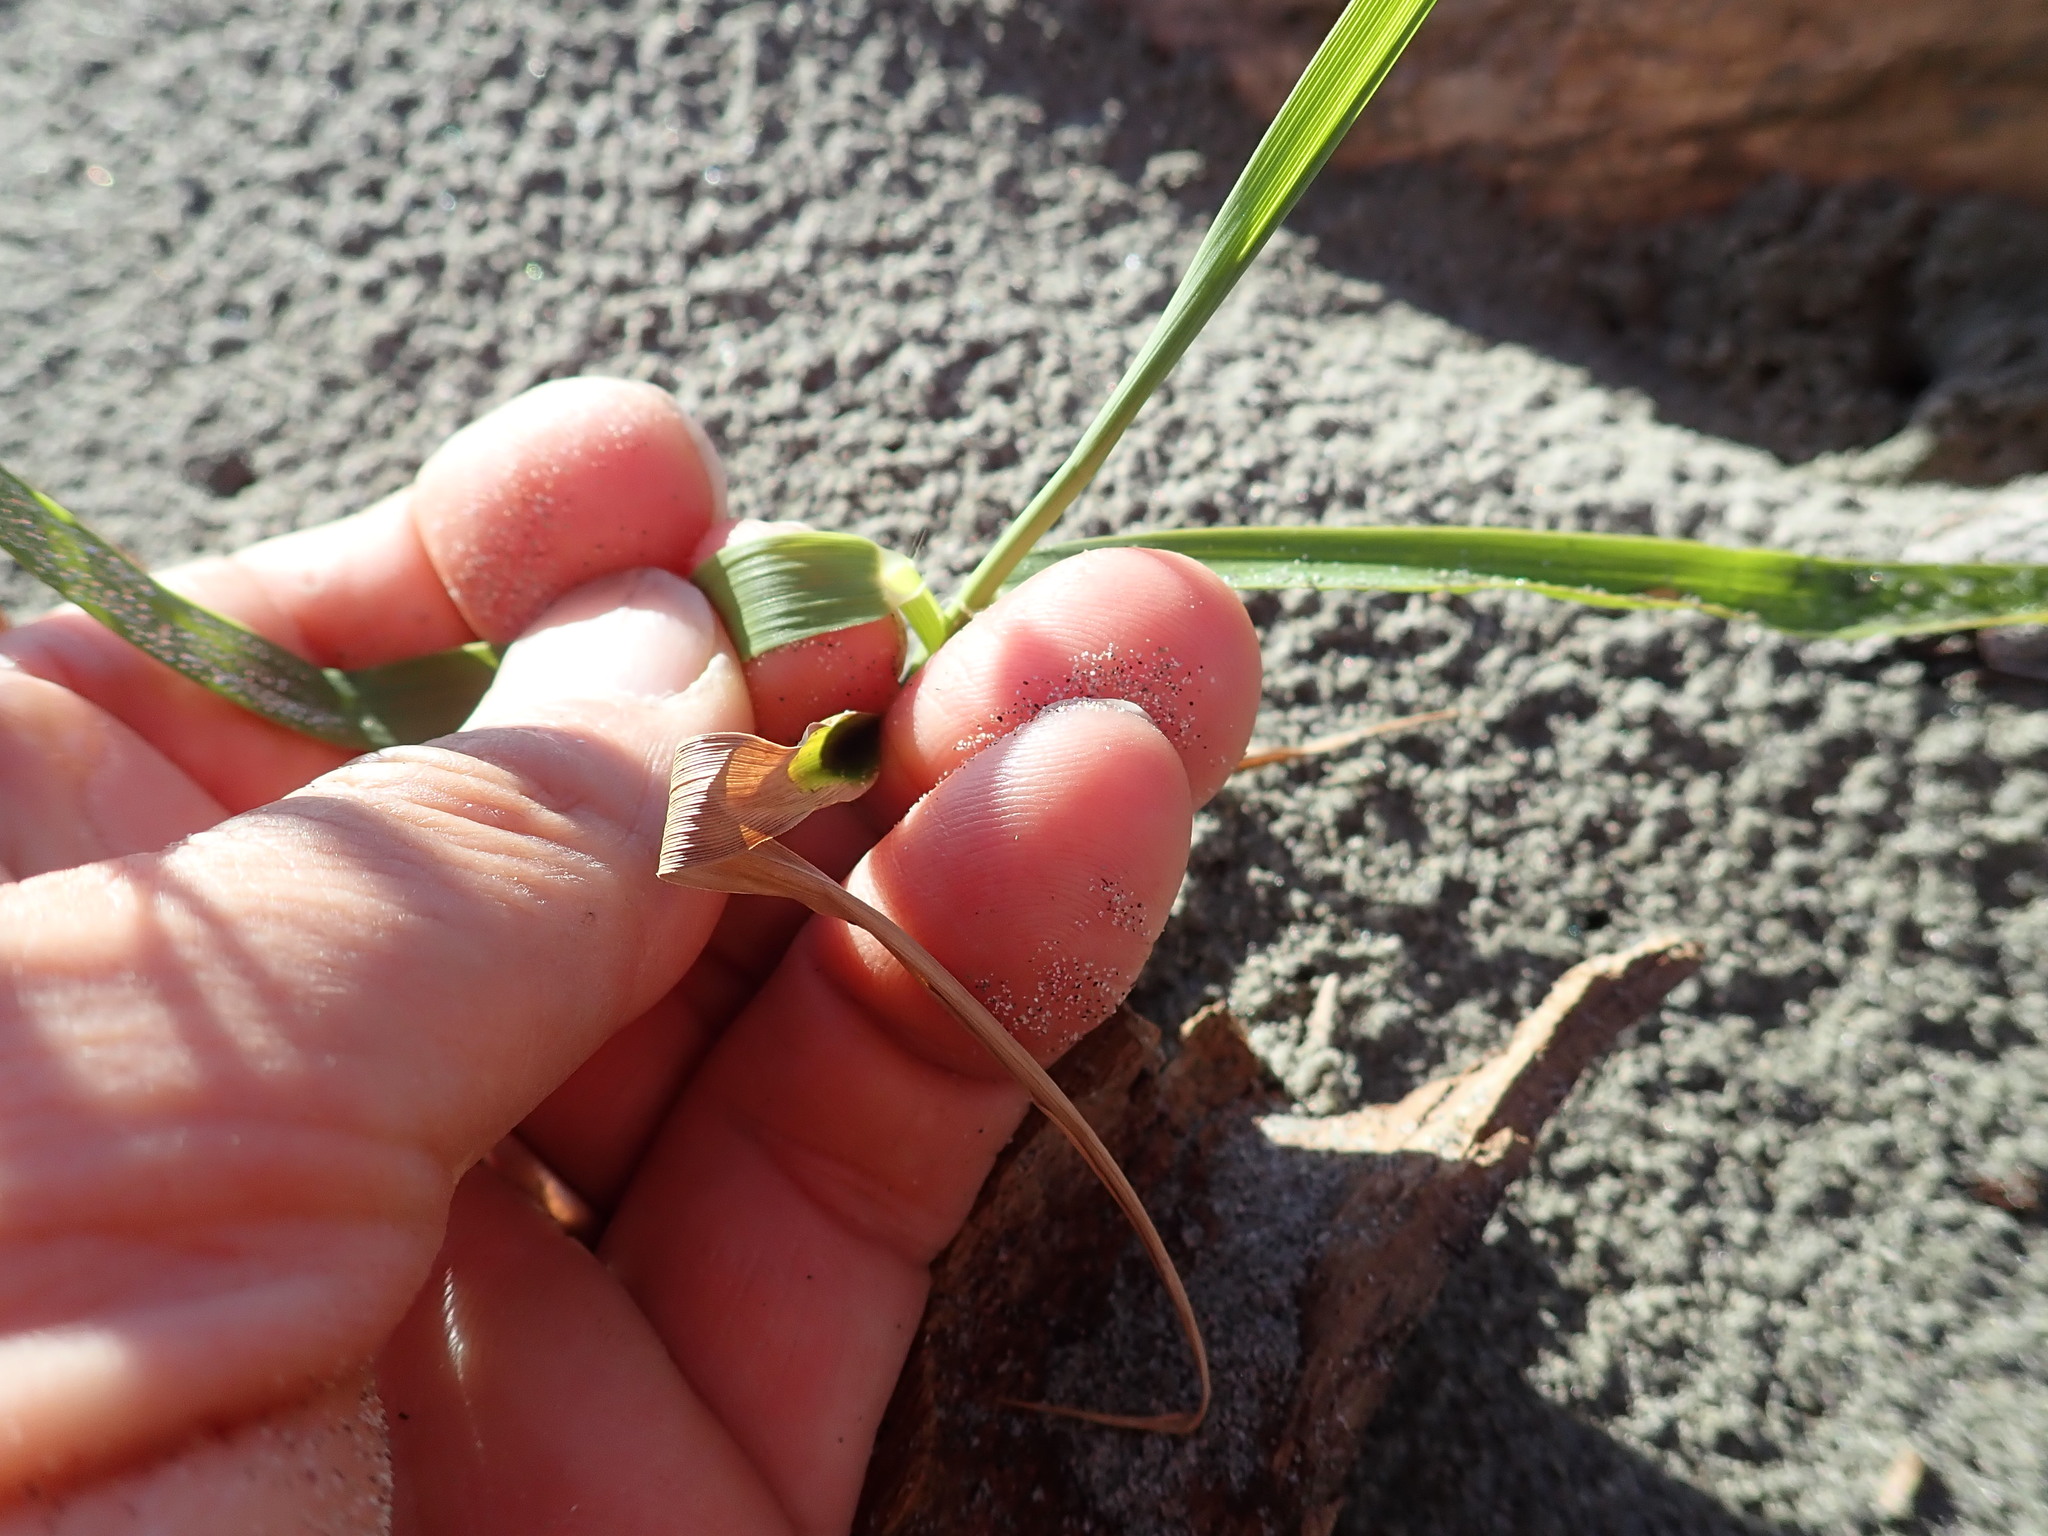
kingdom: Plantae
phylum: Tracheophyta
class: Liliopsida
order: Poales
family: Poaceae
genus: Phragmites
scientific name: Phragmites karka
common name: Tropical reed
